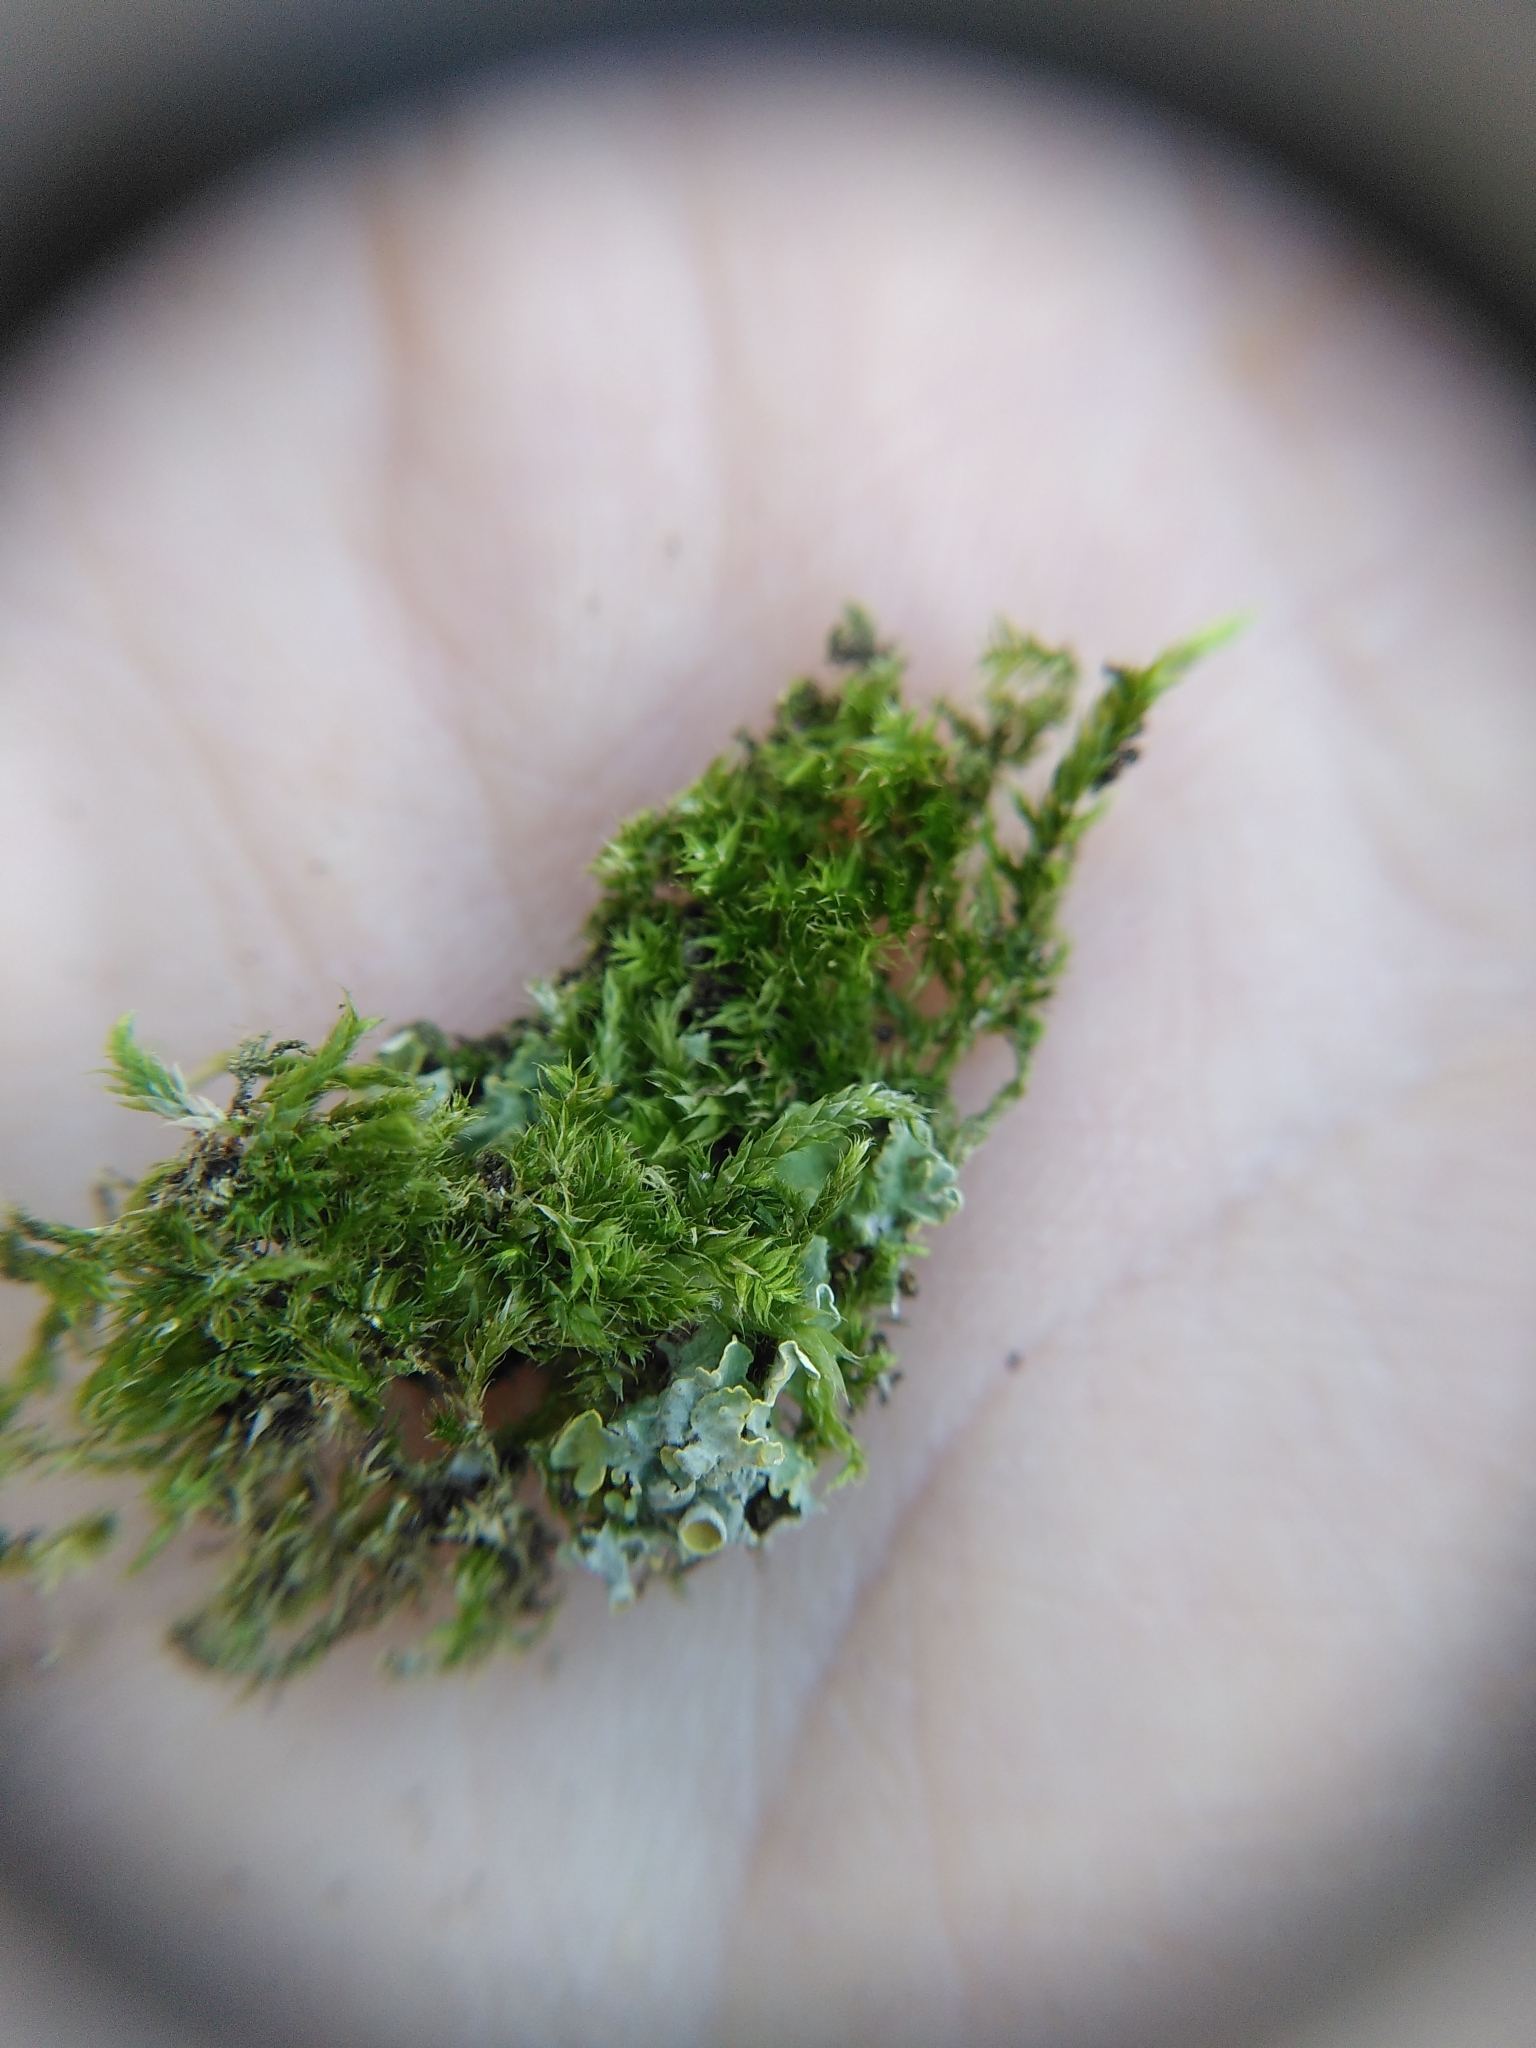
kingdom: Plantae
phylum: Bryophyta
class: Bryopsida
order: Hypnales
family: Hypnaceae
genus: Hypnum
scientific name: Hypnum cupressiforme
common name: Cypress-leaved plait-moss
